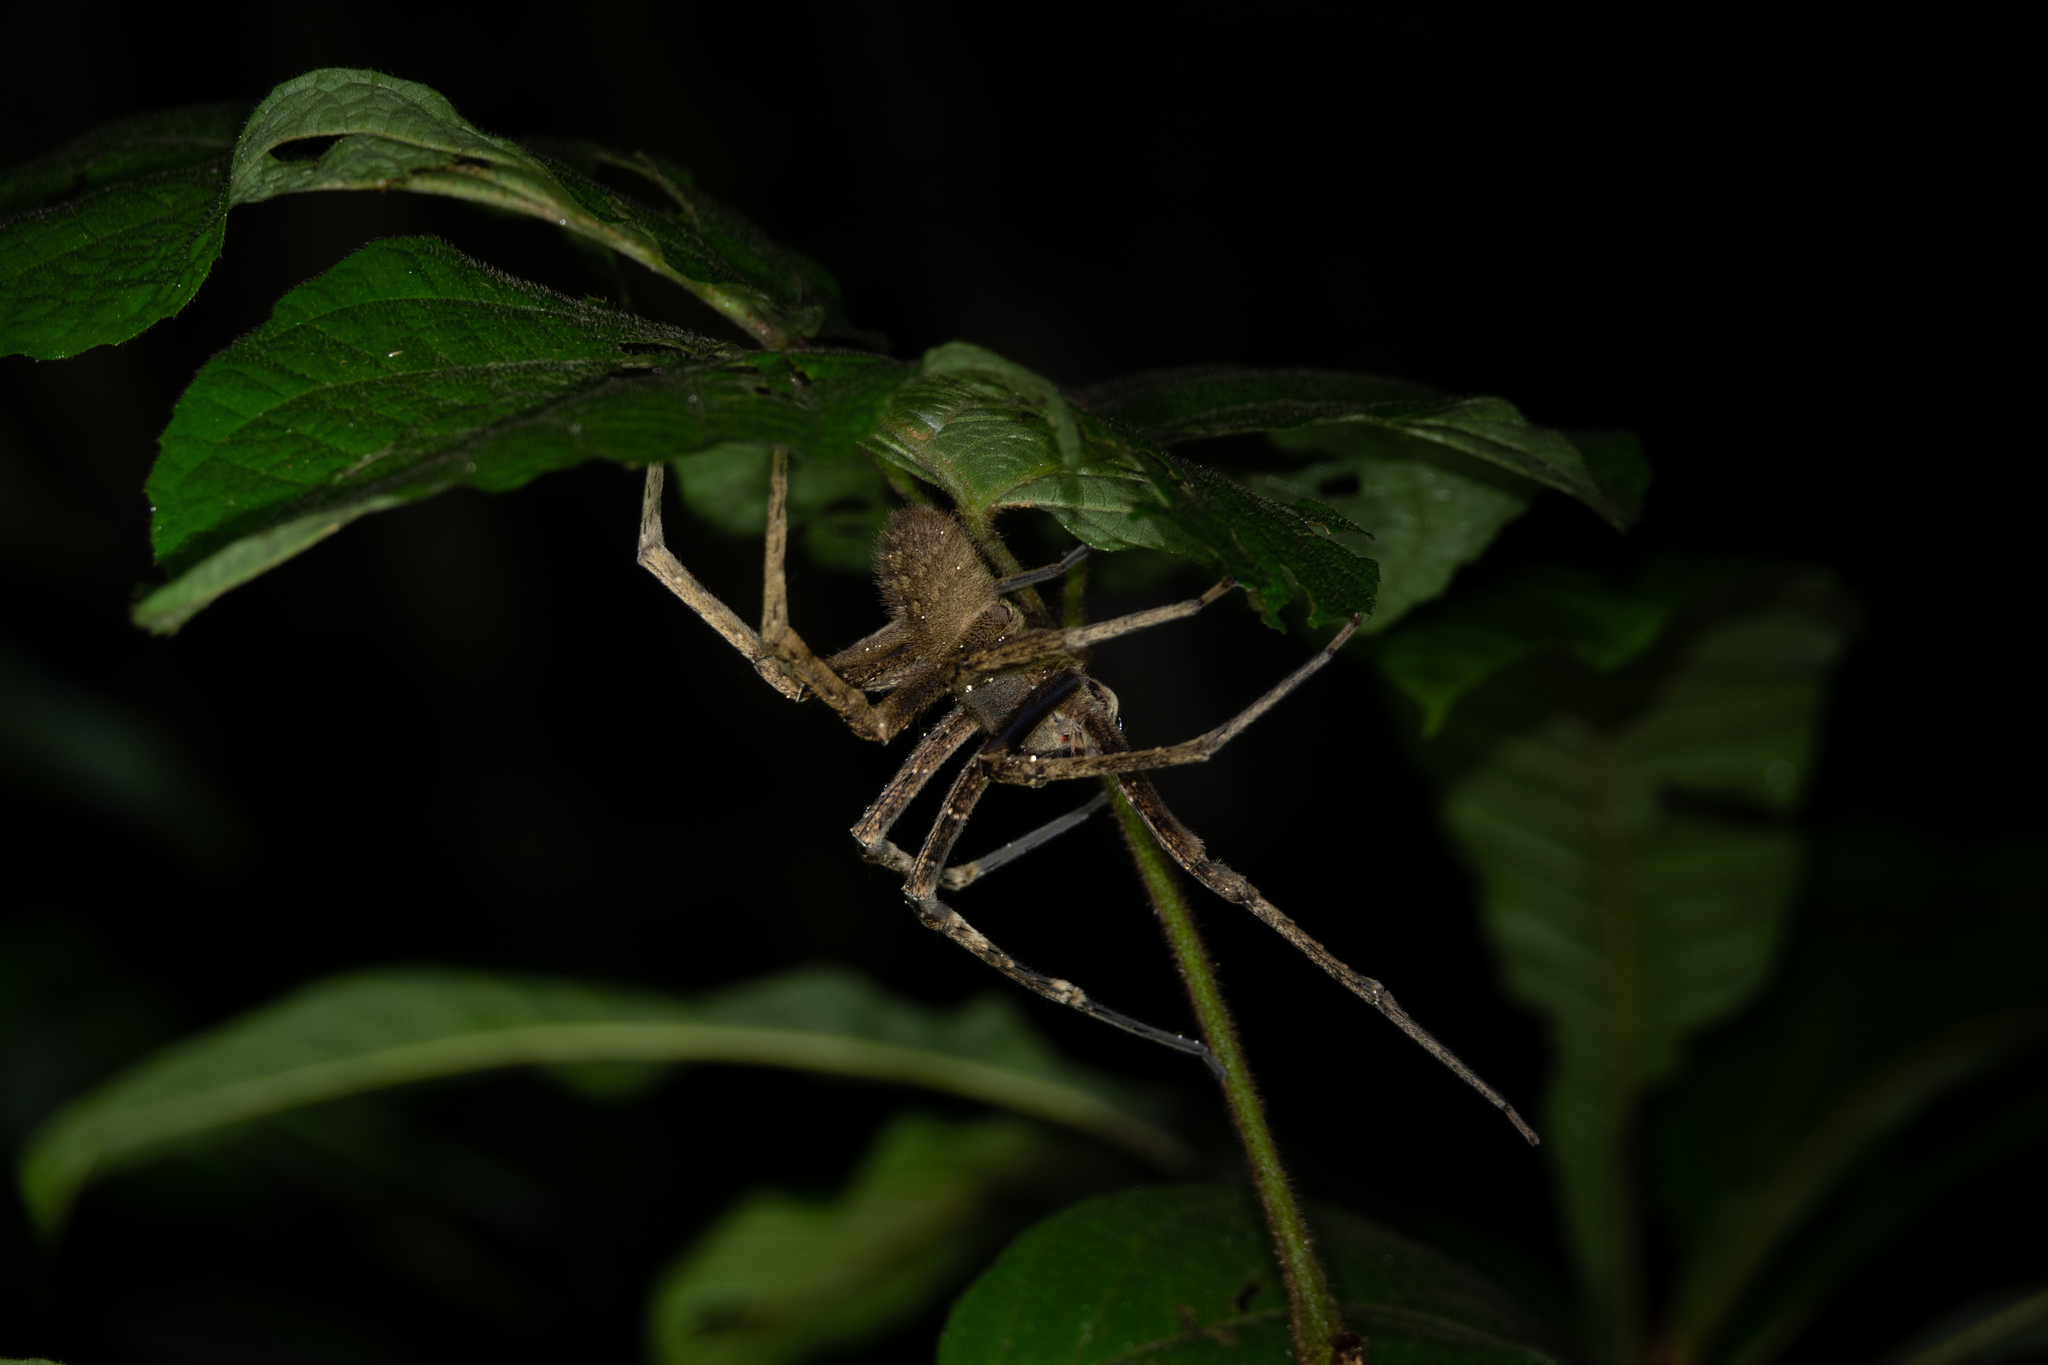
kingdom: Animalia
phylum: Arthropoda
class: Arachnida
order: Araneae
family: Ctenidae
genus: Phoneutria
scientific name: Phoneutria fera
